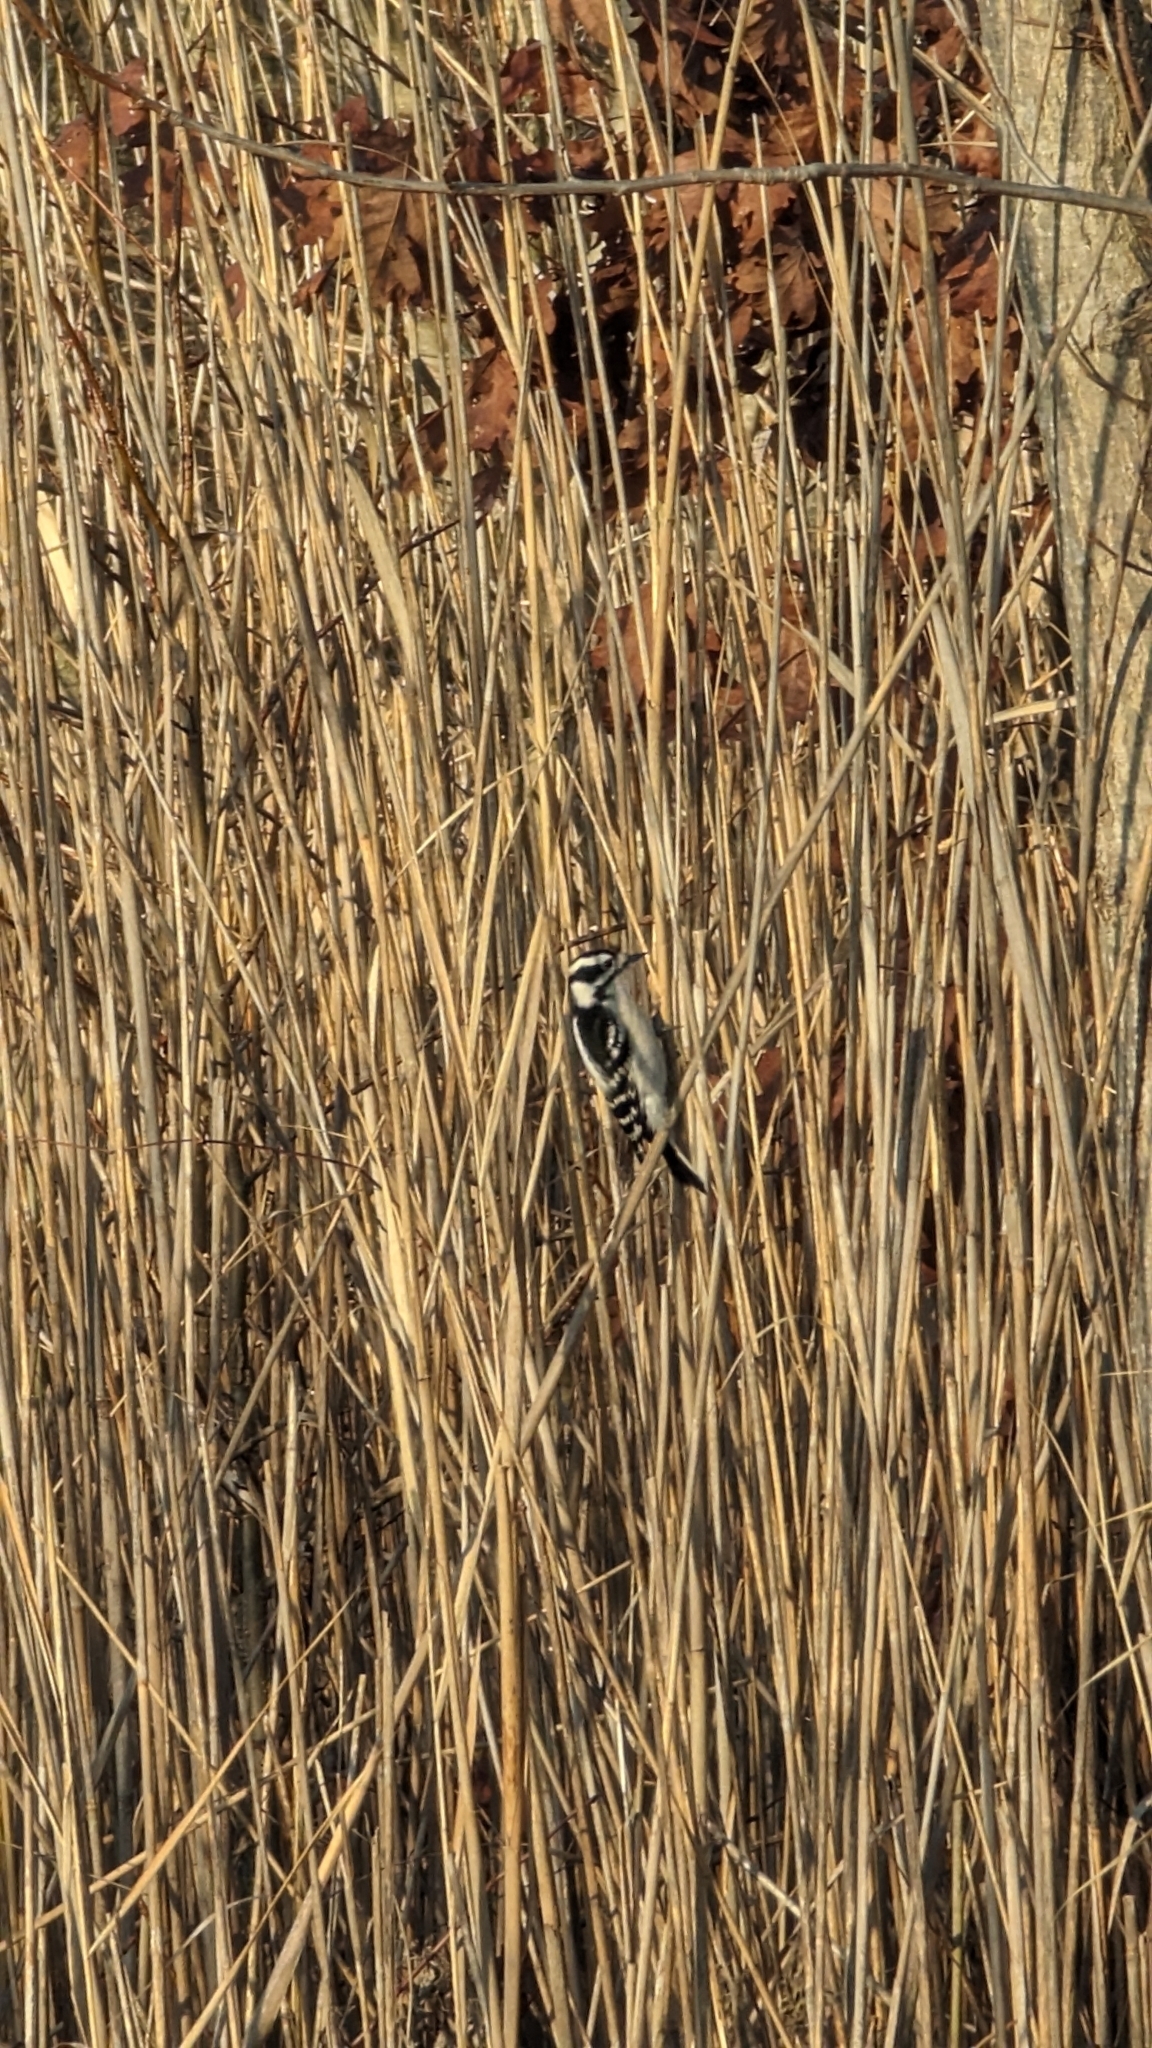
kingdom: Animalia
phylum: Chordata
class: Aves
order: Piciformes
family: Picidae
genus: Dryobates
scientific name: Dryobates pubescens
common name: Downy woodpecker
